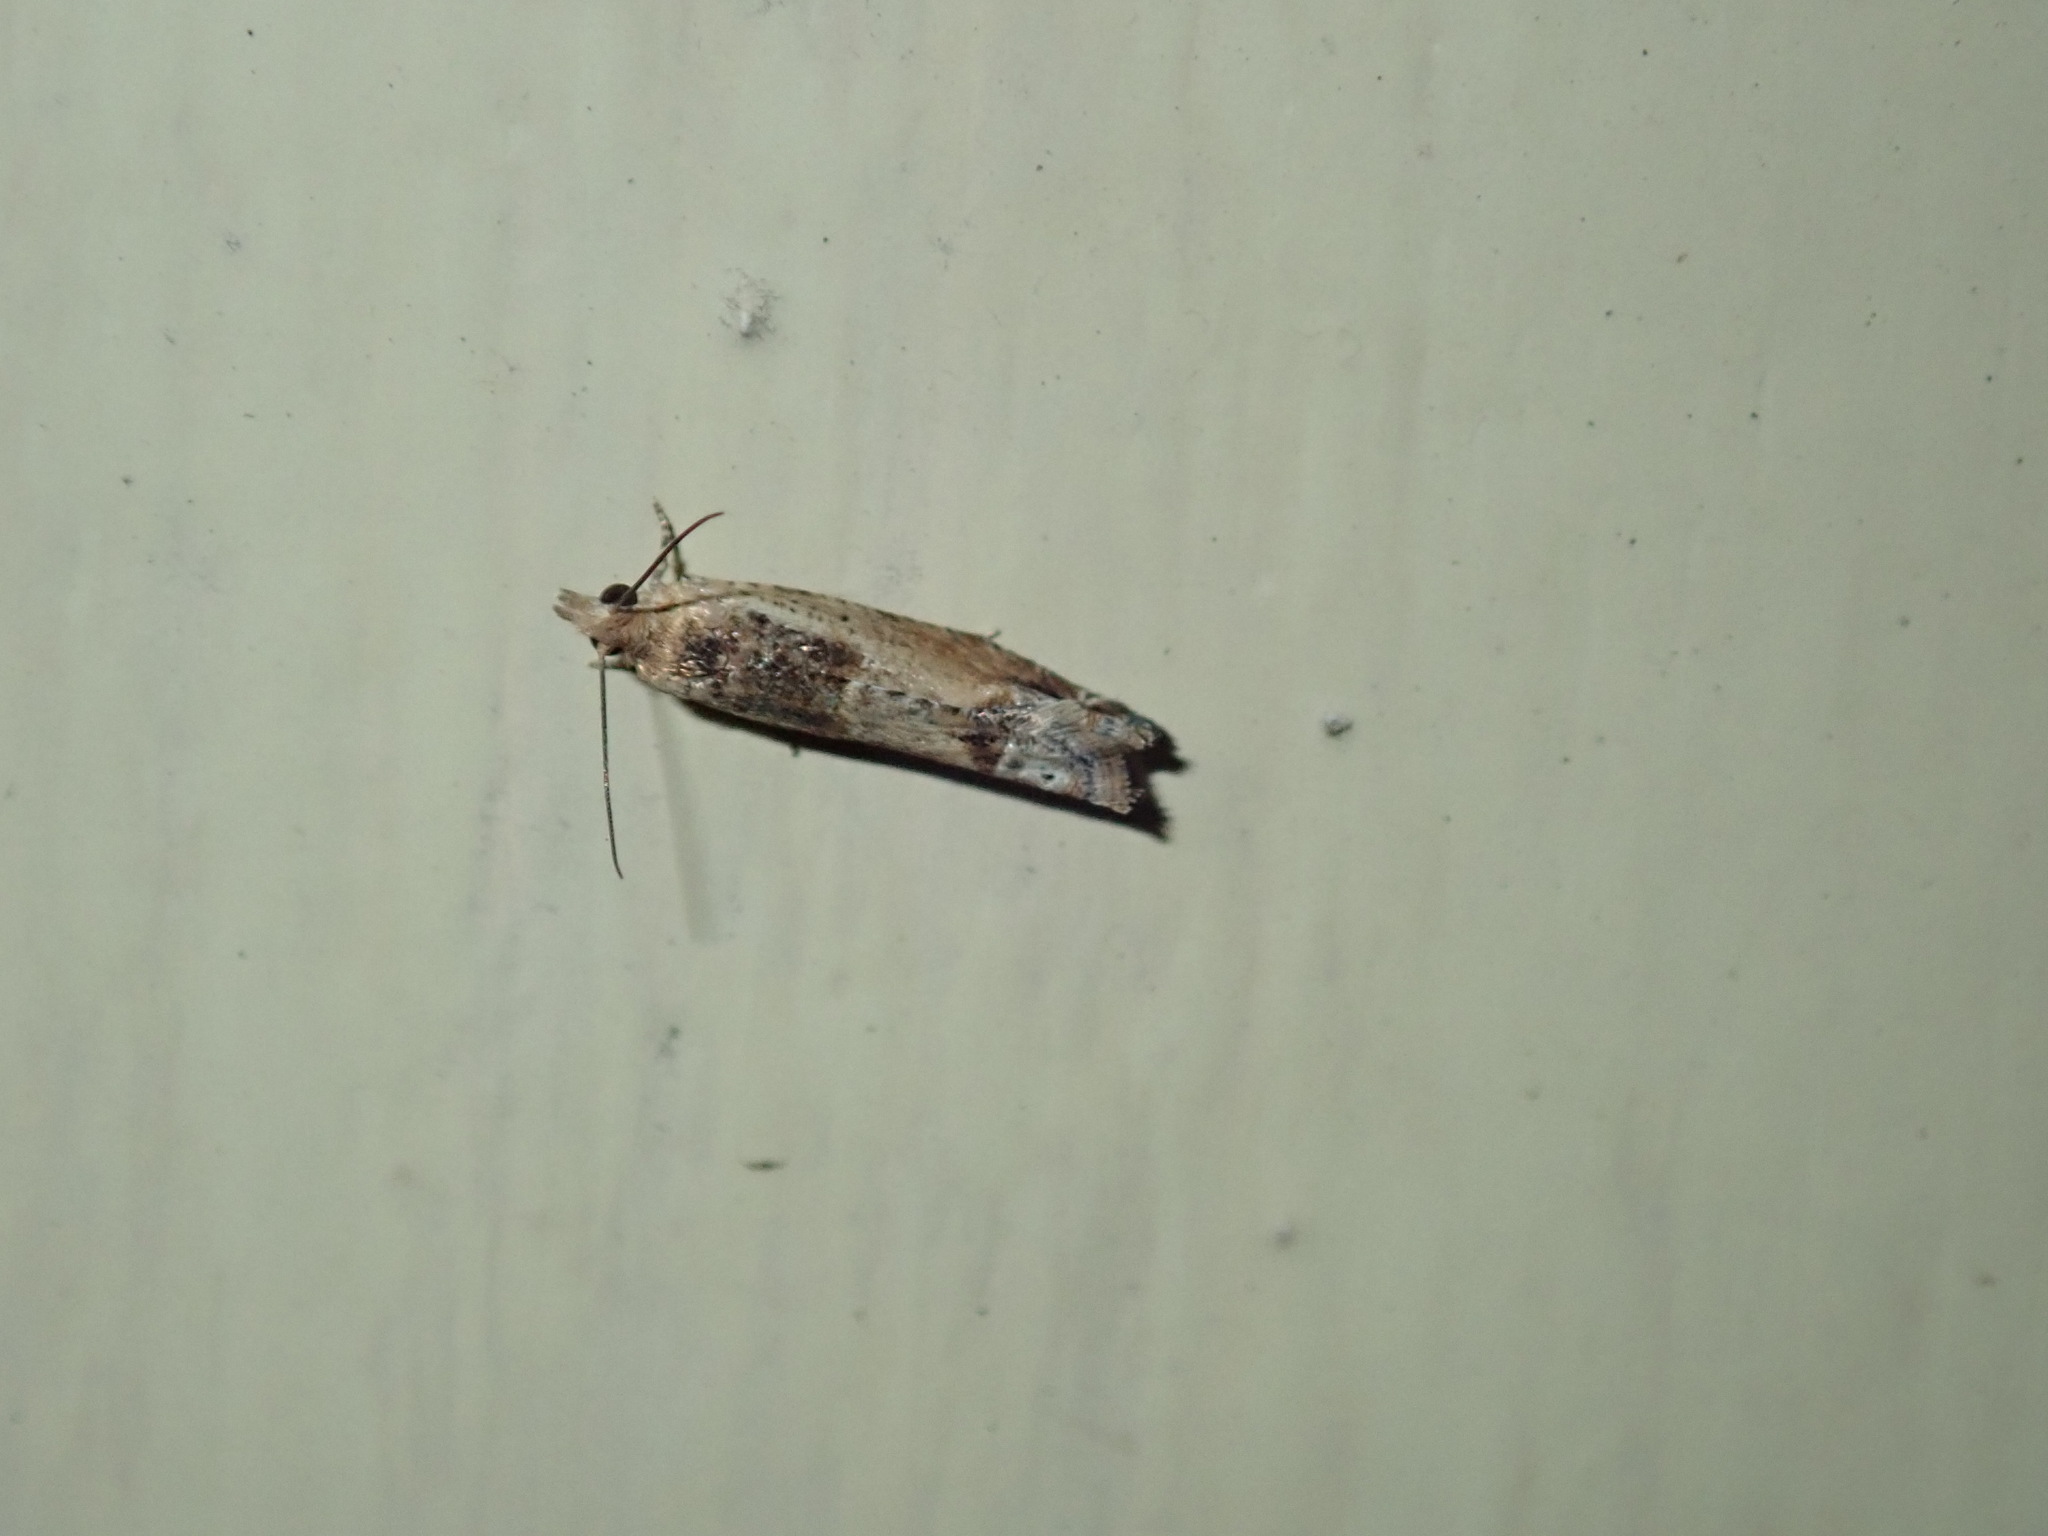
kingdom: Animalia
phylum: Arthropoda
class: Insecta
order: Lepidoptera
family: Tortricidae
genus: Crocidosema
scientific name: Crocidosema plebejana
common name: Southern bell
